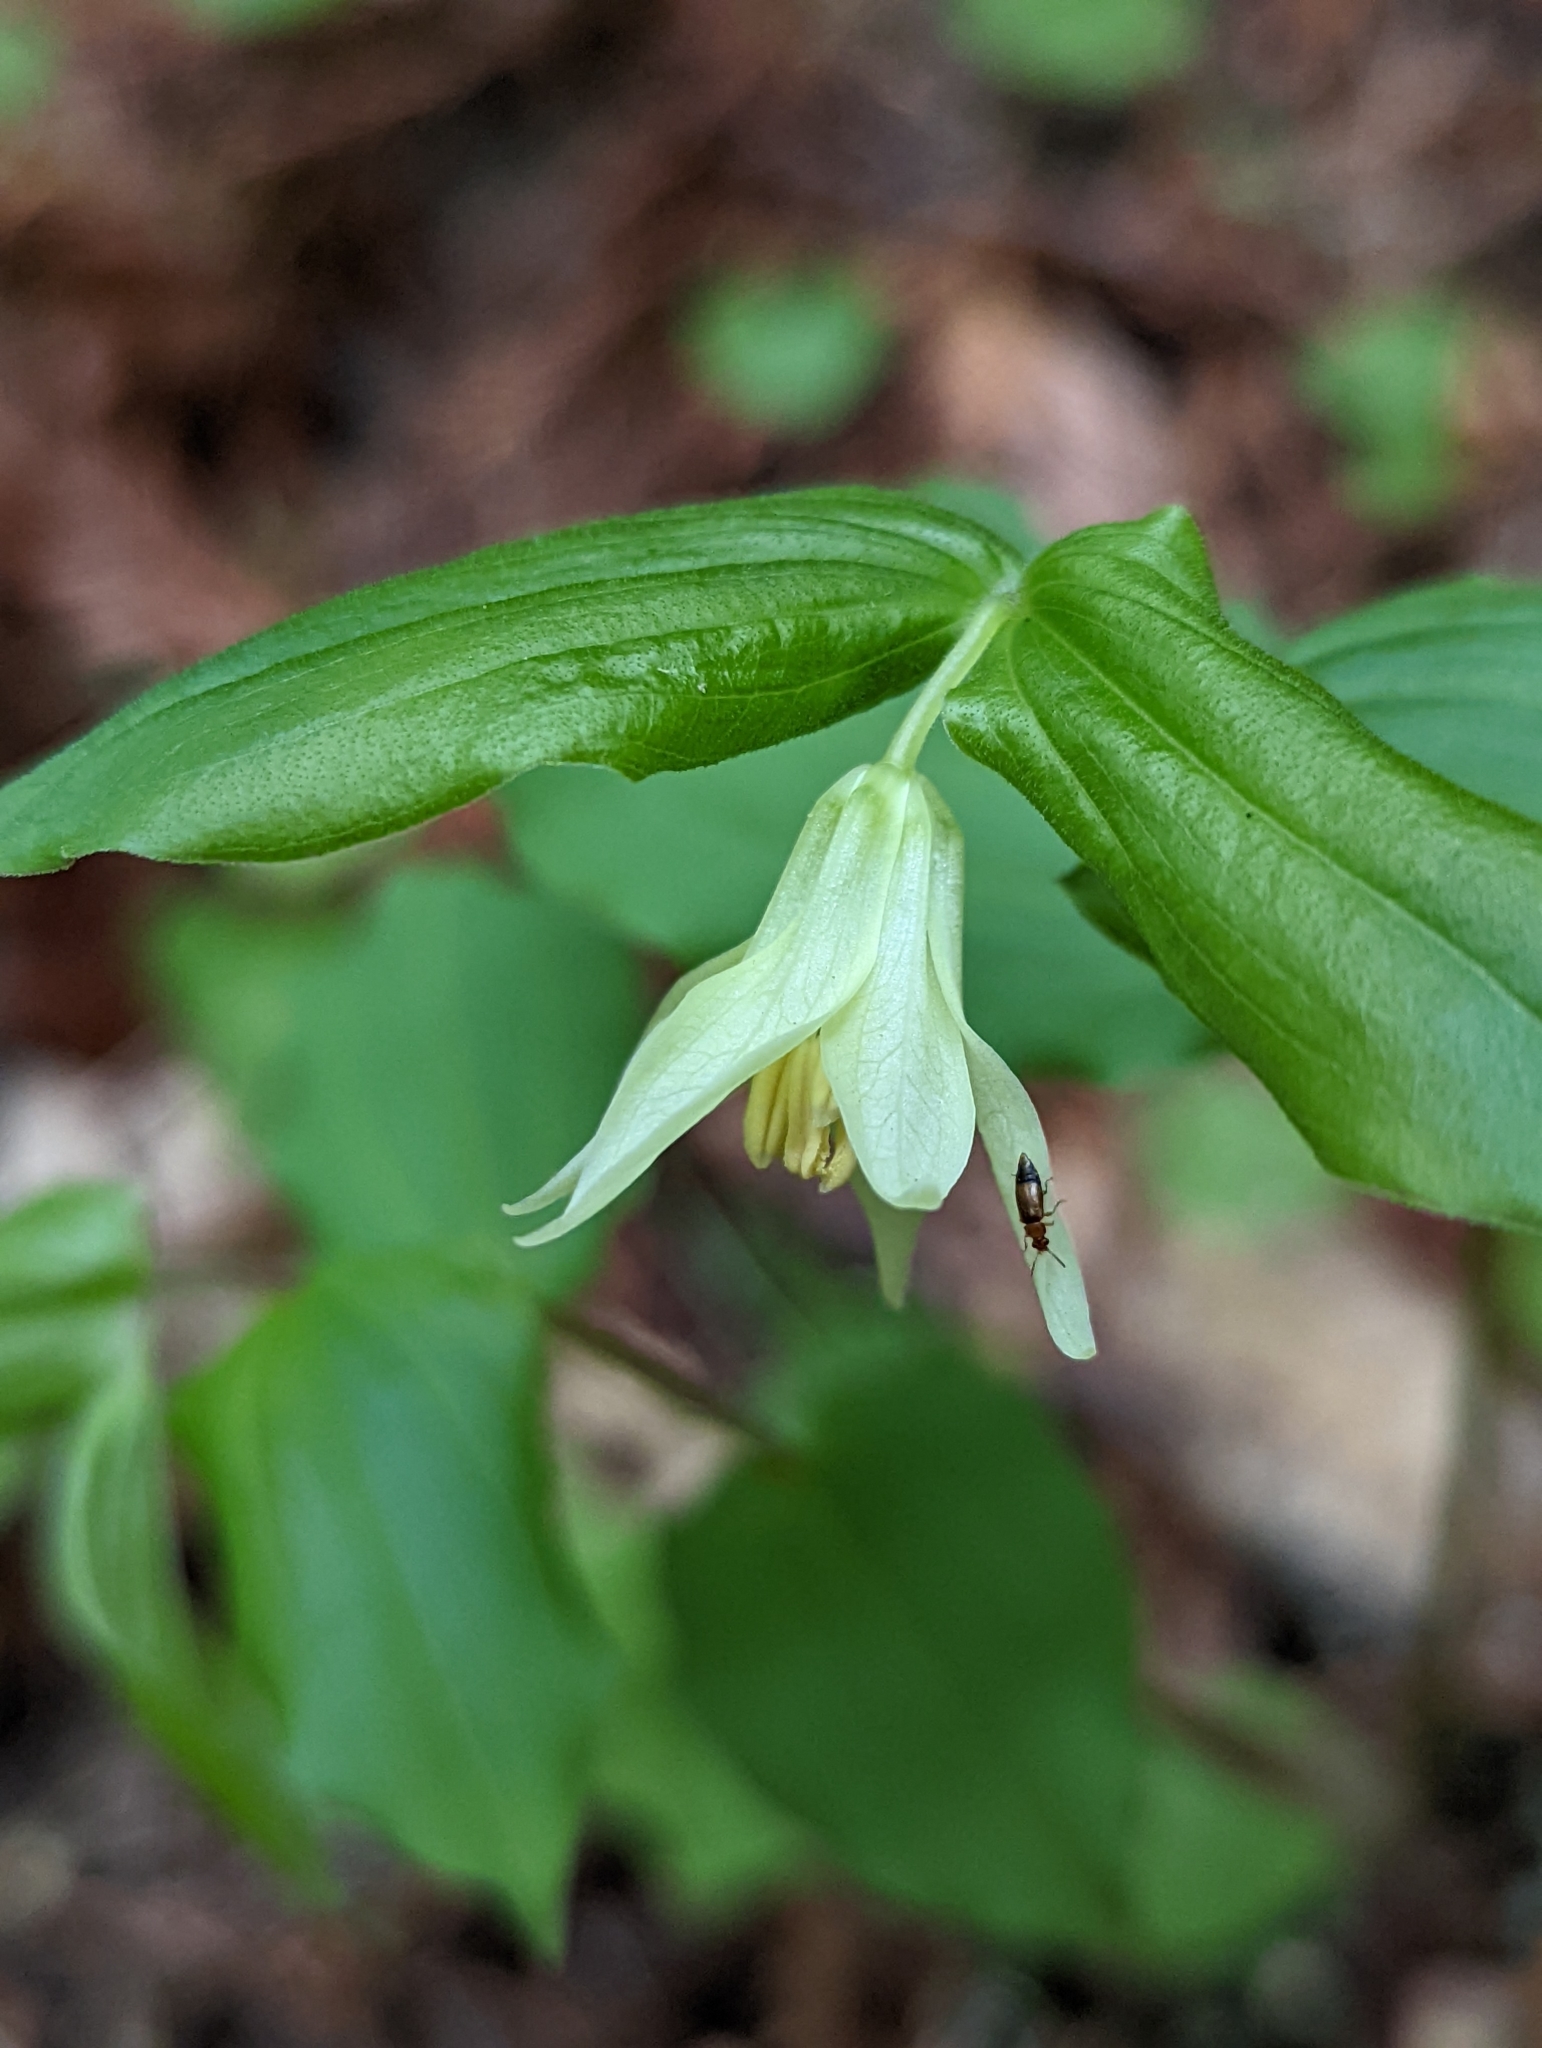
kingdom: Plantae
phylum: Tracheophyta
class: Liliopsida
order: Liliales
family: Liliaceae
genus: Prosartes
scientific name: Prosartes hookeri
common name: Fairy-bells
